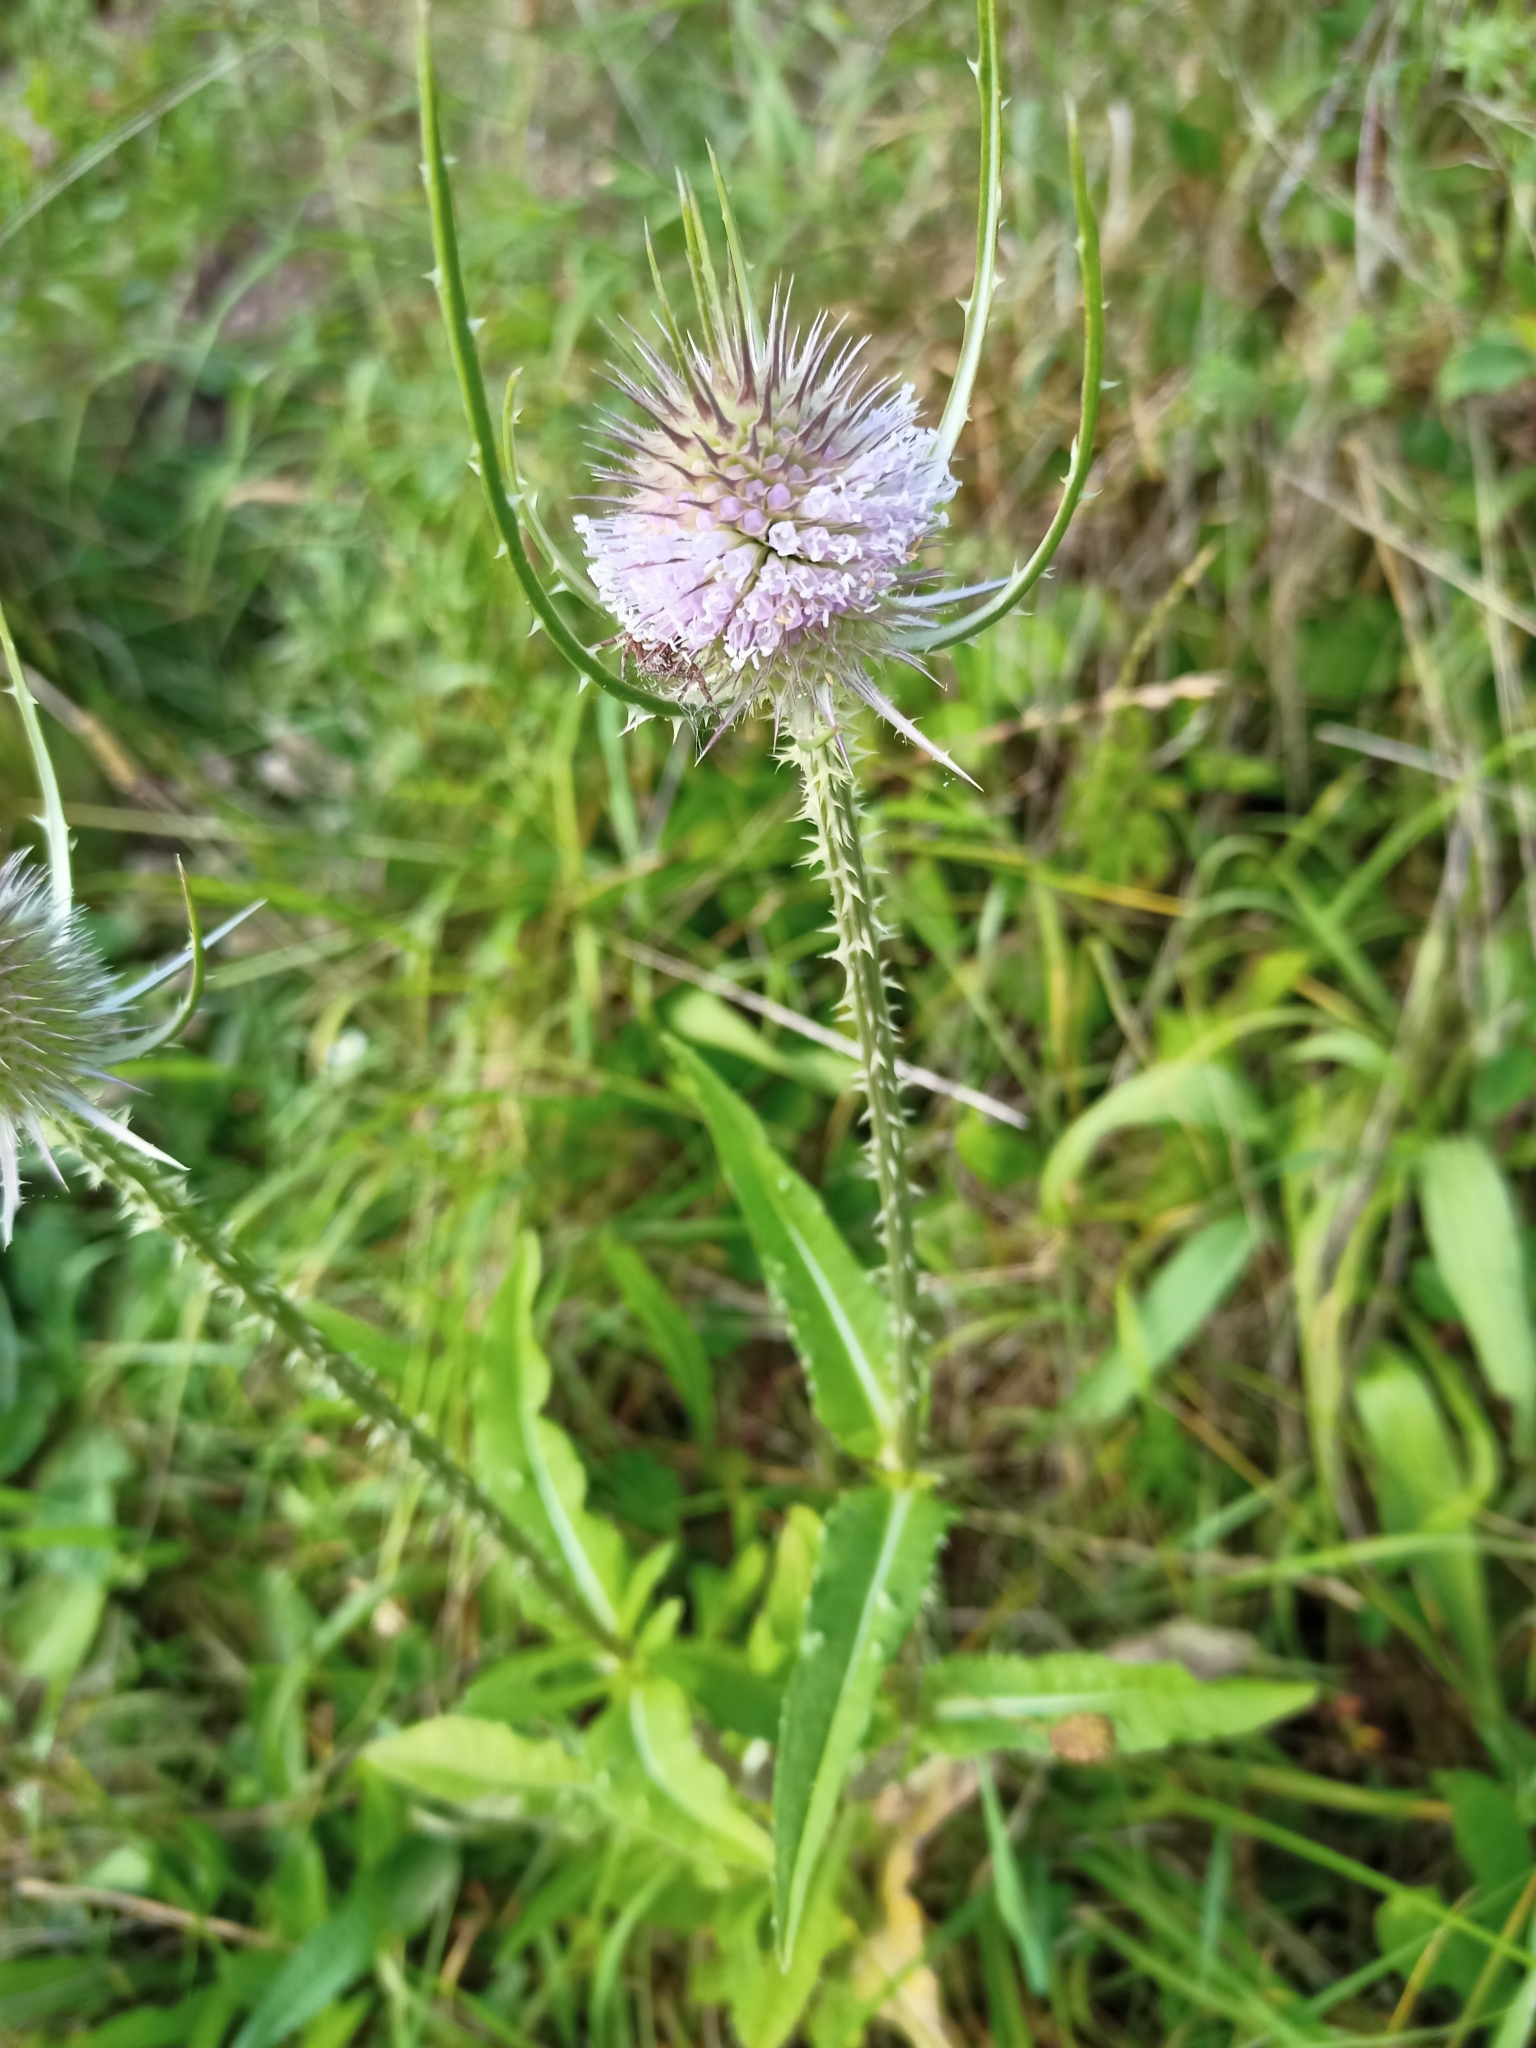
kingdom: Plantae
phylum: Tracheophyta
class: Magnoliopsida
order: Dipsacales
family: Caprifoliaceae
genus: Dipsacus
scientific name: Dipsacus fullonum
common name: Teasel
